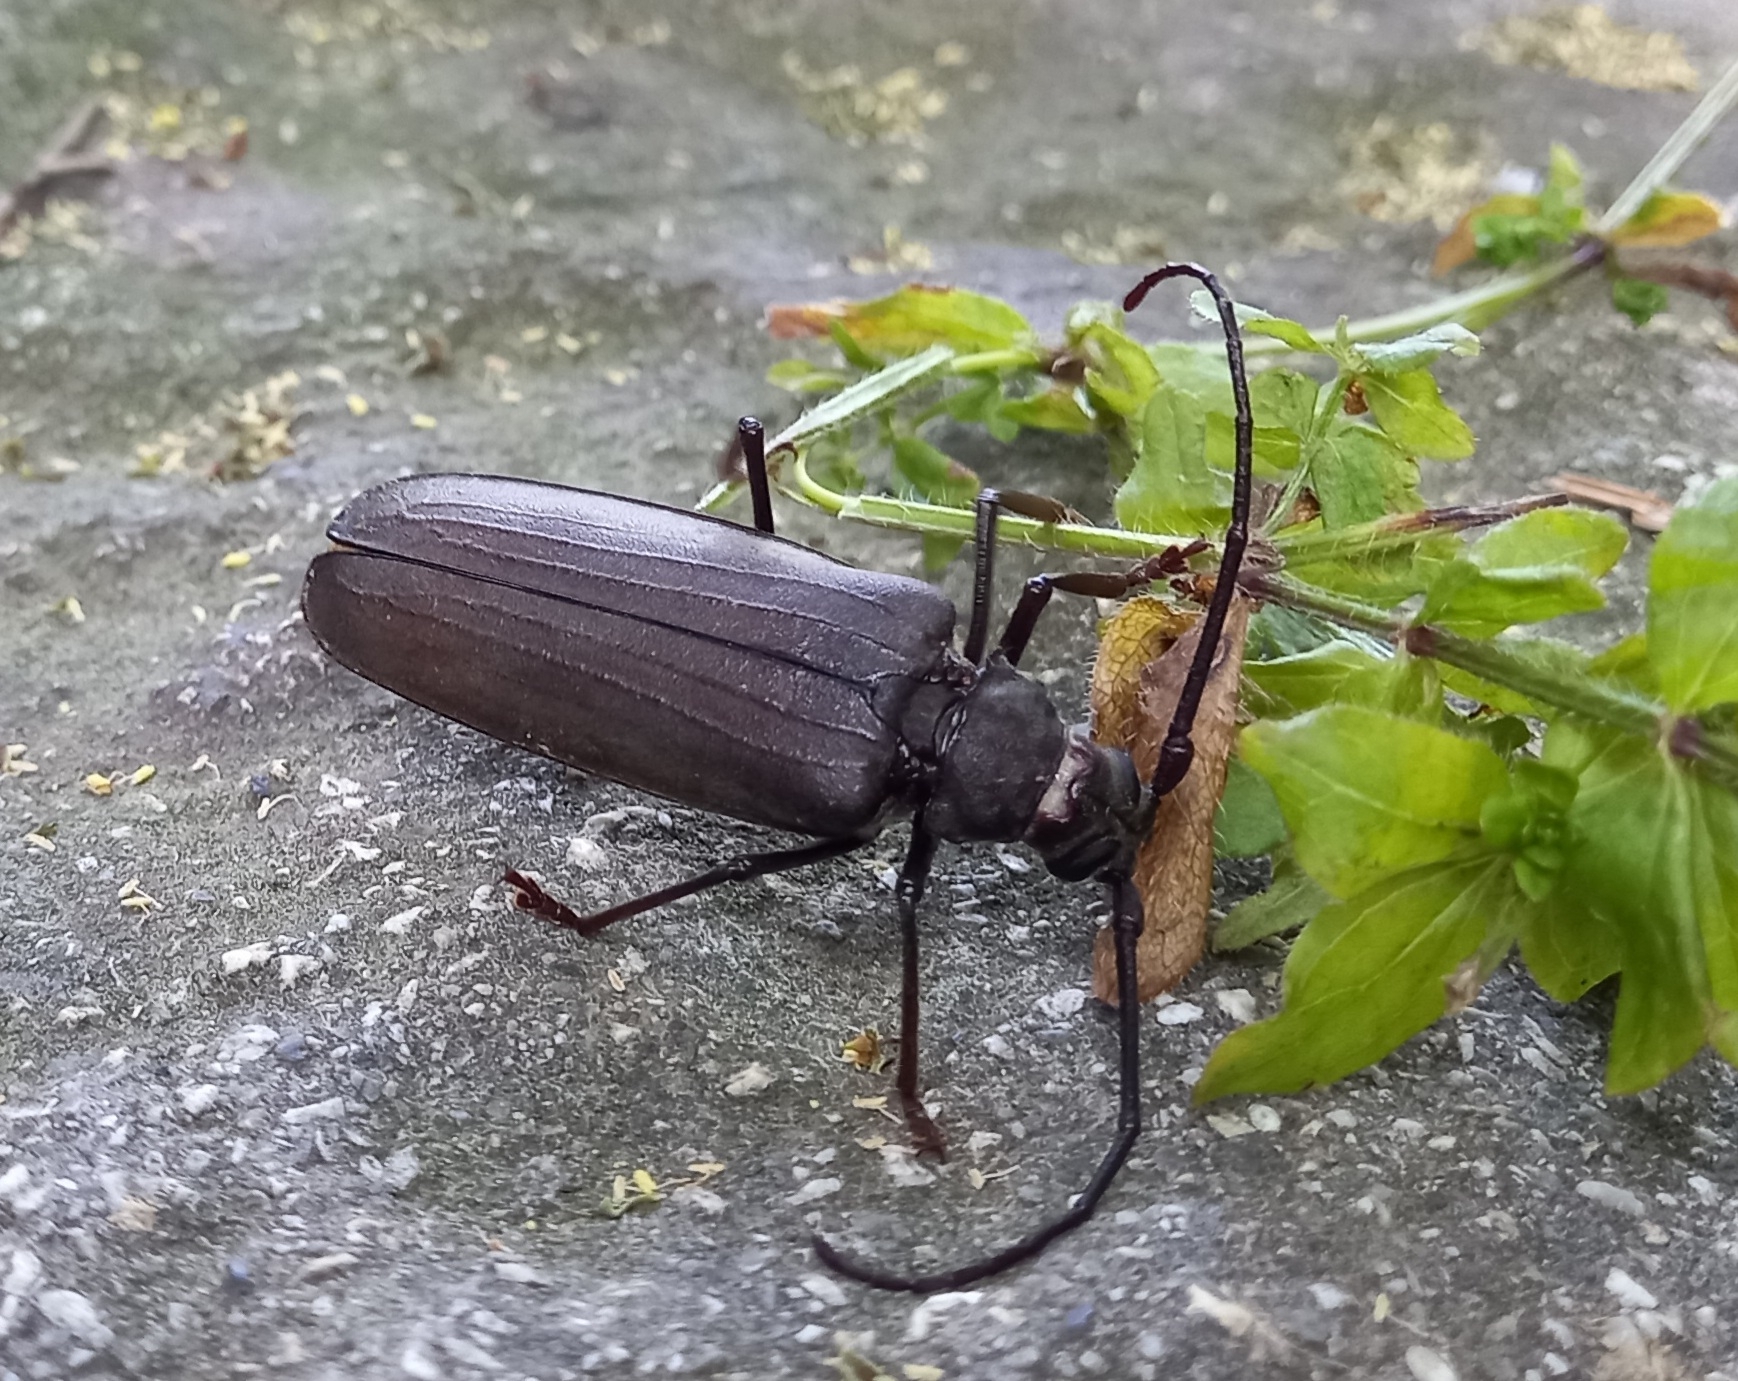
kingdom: Animalia
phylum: Arthropoda
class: Insecta
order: Coleoptera
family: Cerambycidae
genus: Aegosoma
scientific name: Aegosoma scabricorne
